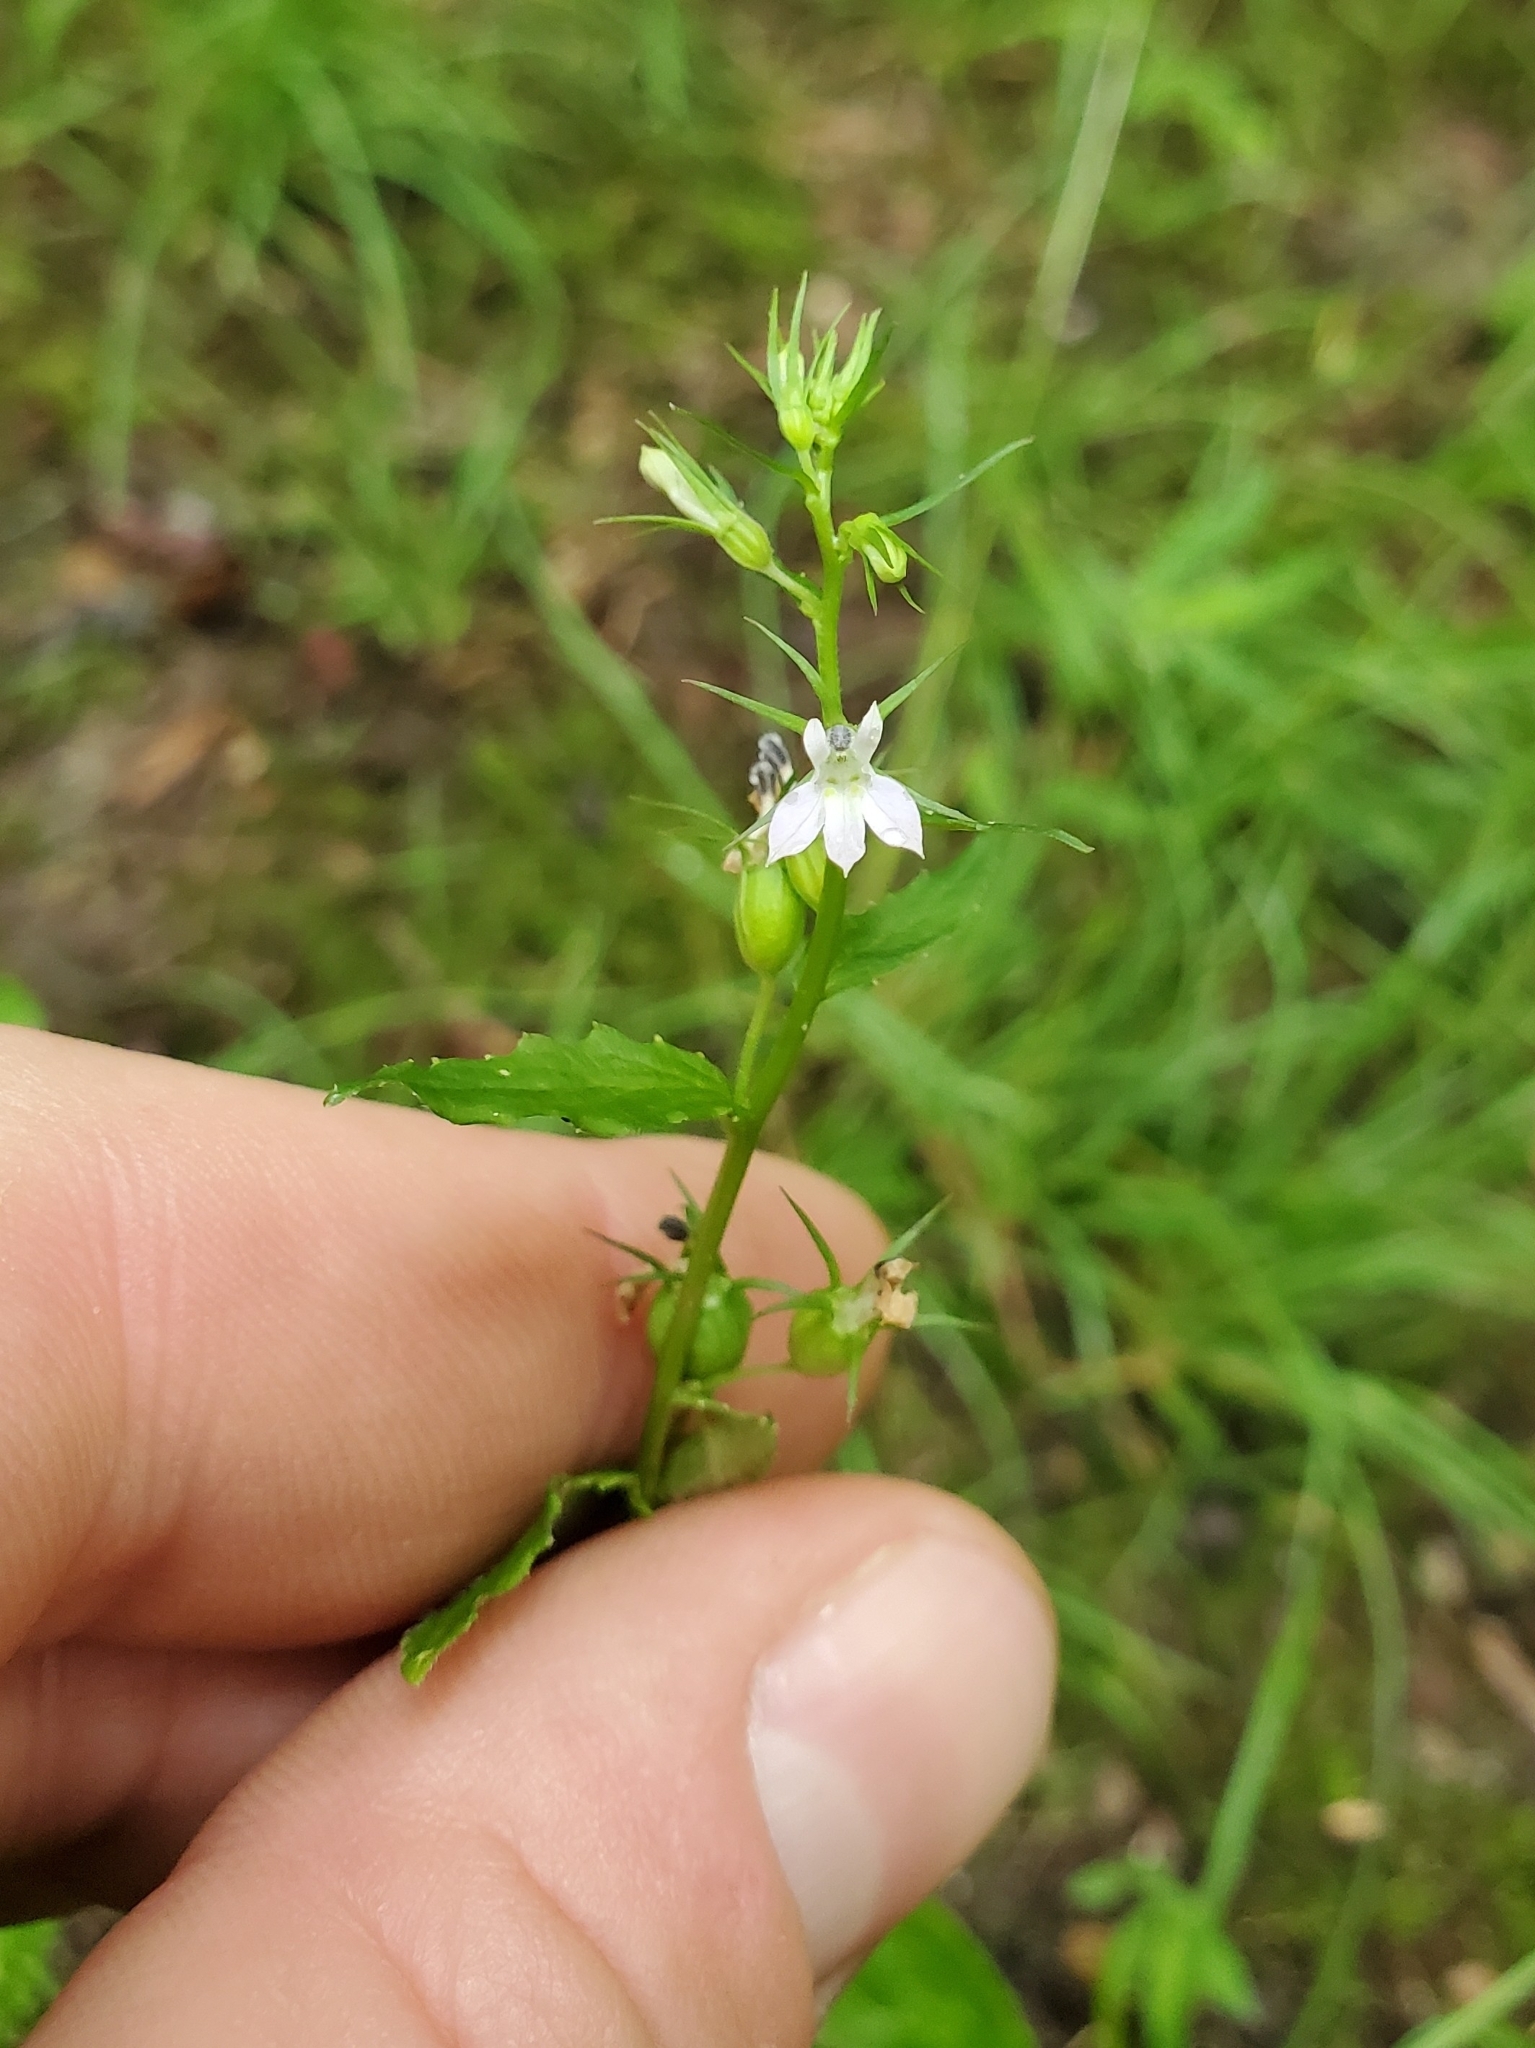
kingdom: Plantae
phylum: Tracheophyta
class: Magnoliopsida
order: Asterales
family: Campanulaceae
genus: Lobelia
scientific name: Lobelia inflata
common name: Indian tobacco
